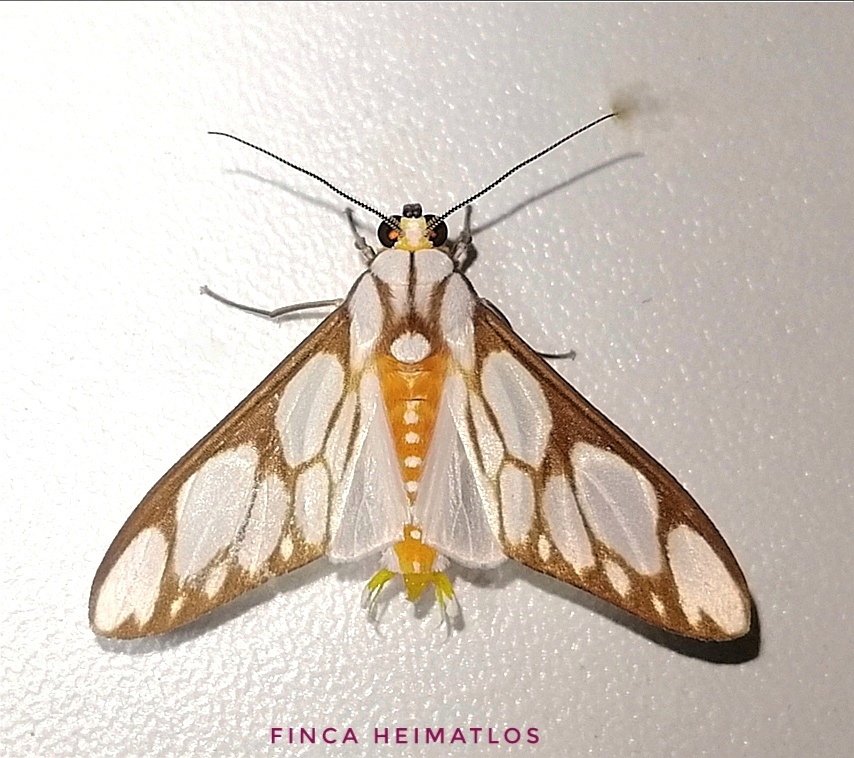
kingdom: Animalia
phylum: Arthropoda
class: Insecta
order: Lepidoptera
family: Erebidae
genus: Robinsonia
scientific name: Robinsonia sanea
